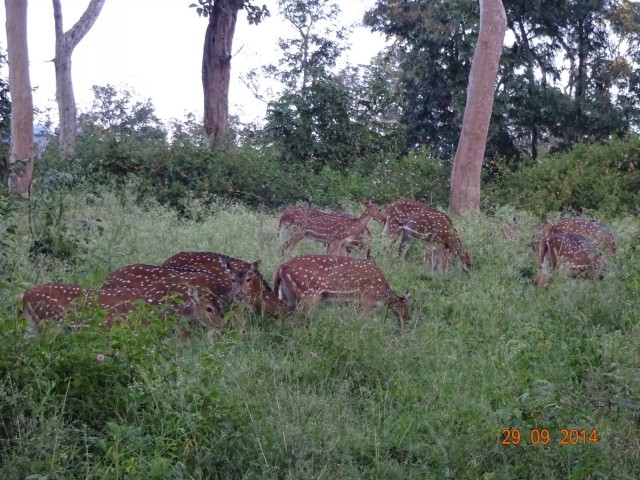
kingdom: Animalia
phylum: Chordata
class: Mammalia
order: Artiodactyla
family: Cervidae
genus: Axis
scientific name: Axis axis
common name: Chital
